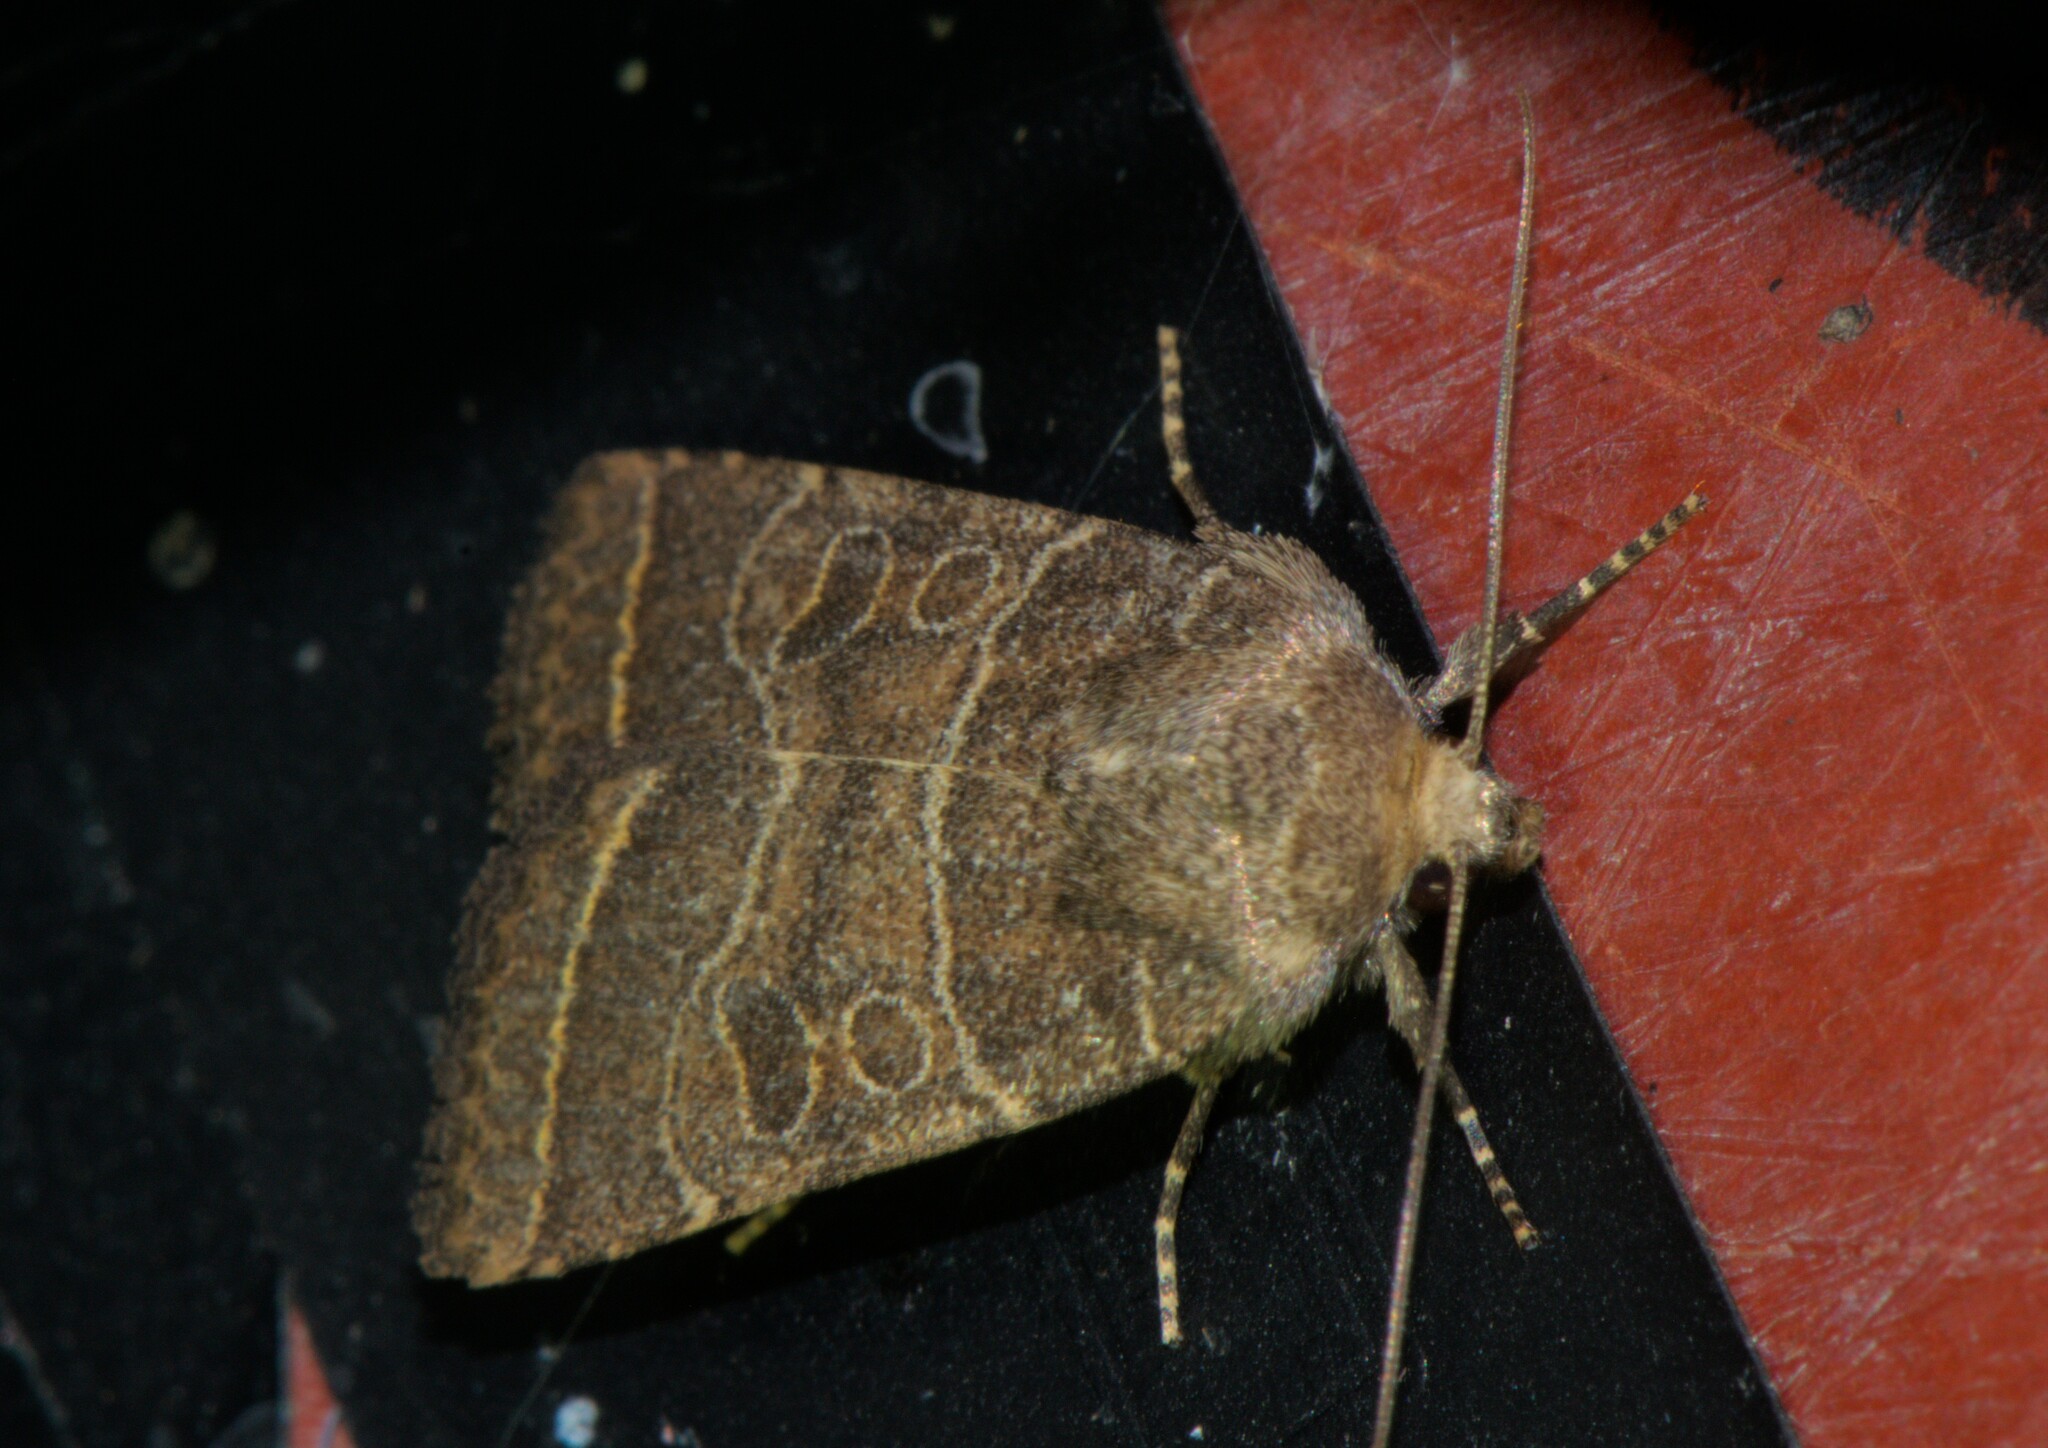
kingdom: Animalia
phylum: Arthropoda
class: Insecta
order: Lepidoptera
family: Noctuidae
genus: Athetis
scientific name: Athetis divisa
